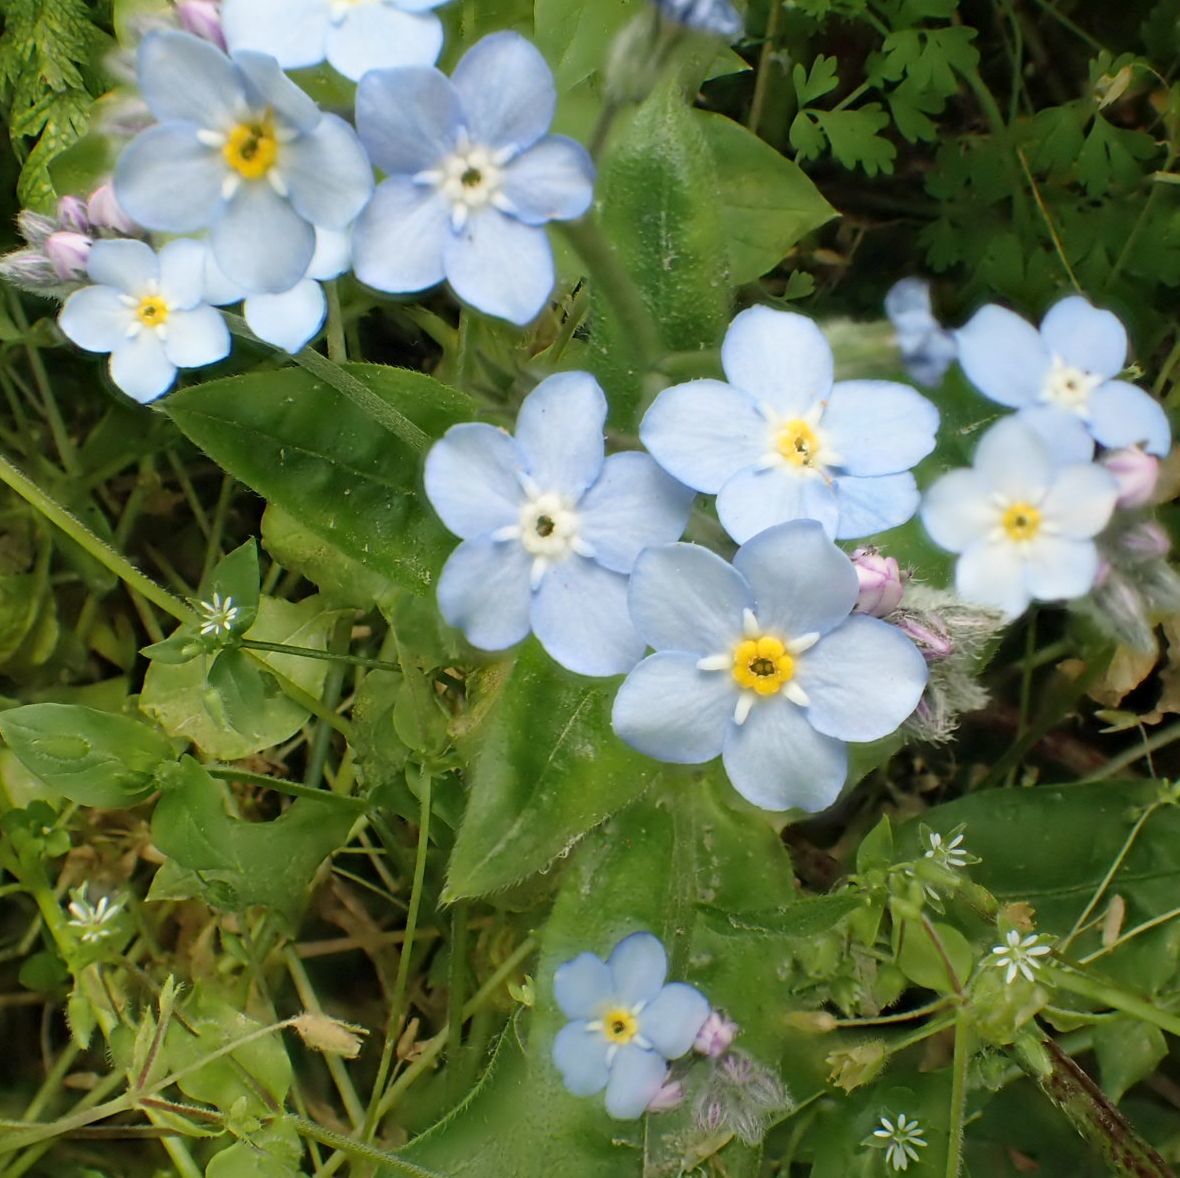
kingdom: Plantae
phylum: Tracheophyta
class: Magnoliopsida
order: Boraginales
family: Boraginaceae
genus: Myosotis
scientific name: Myosotis sylvatica
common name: Wood forget-me-not
